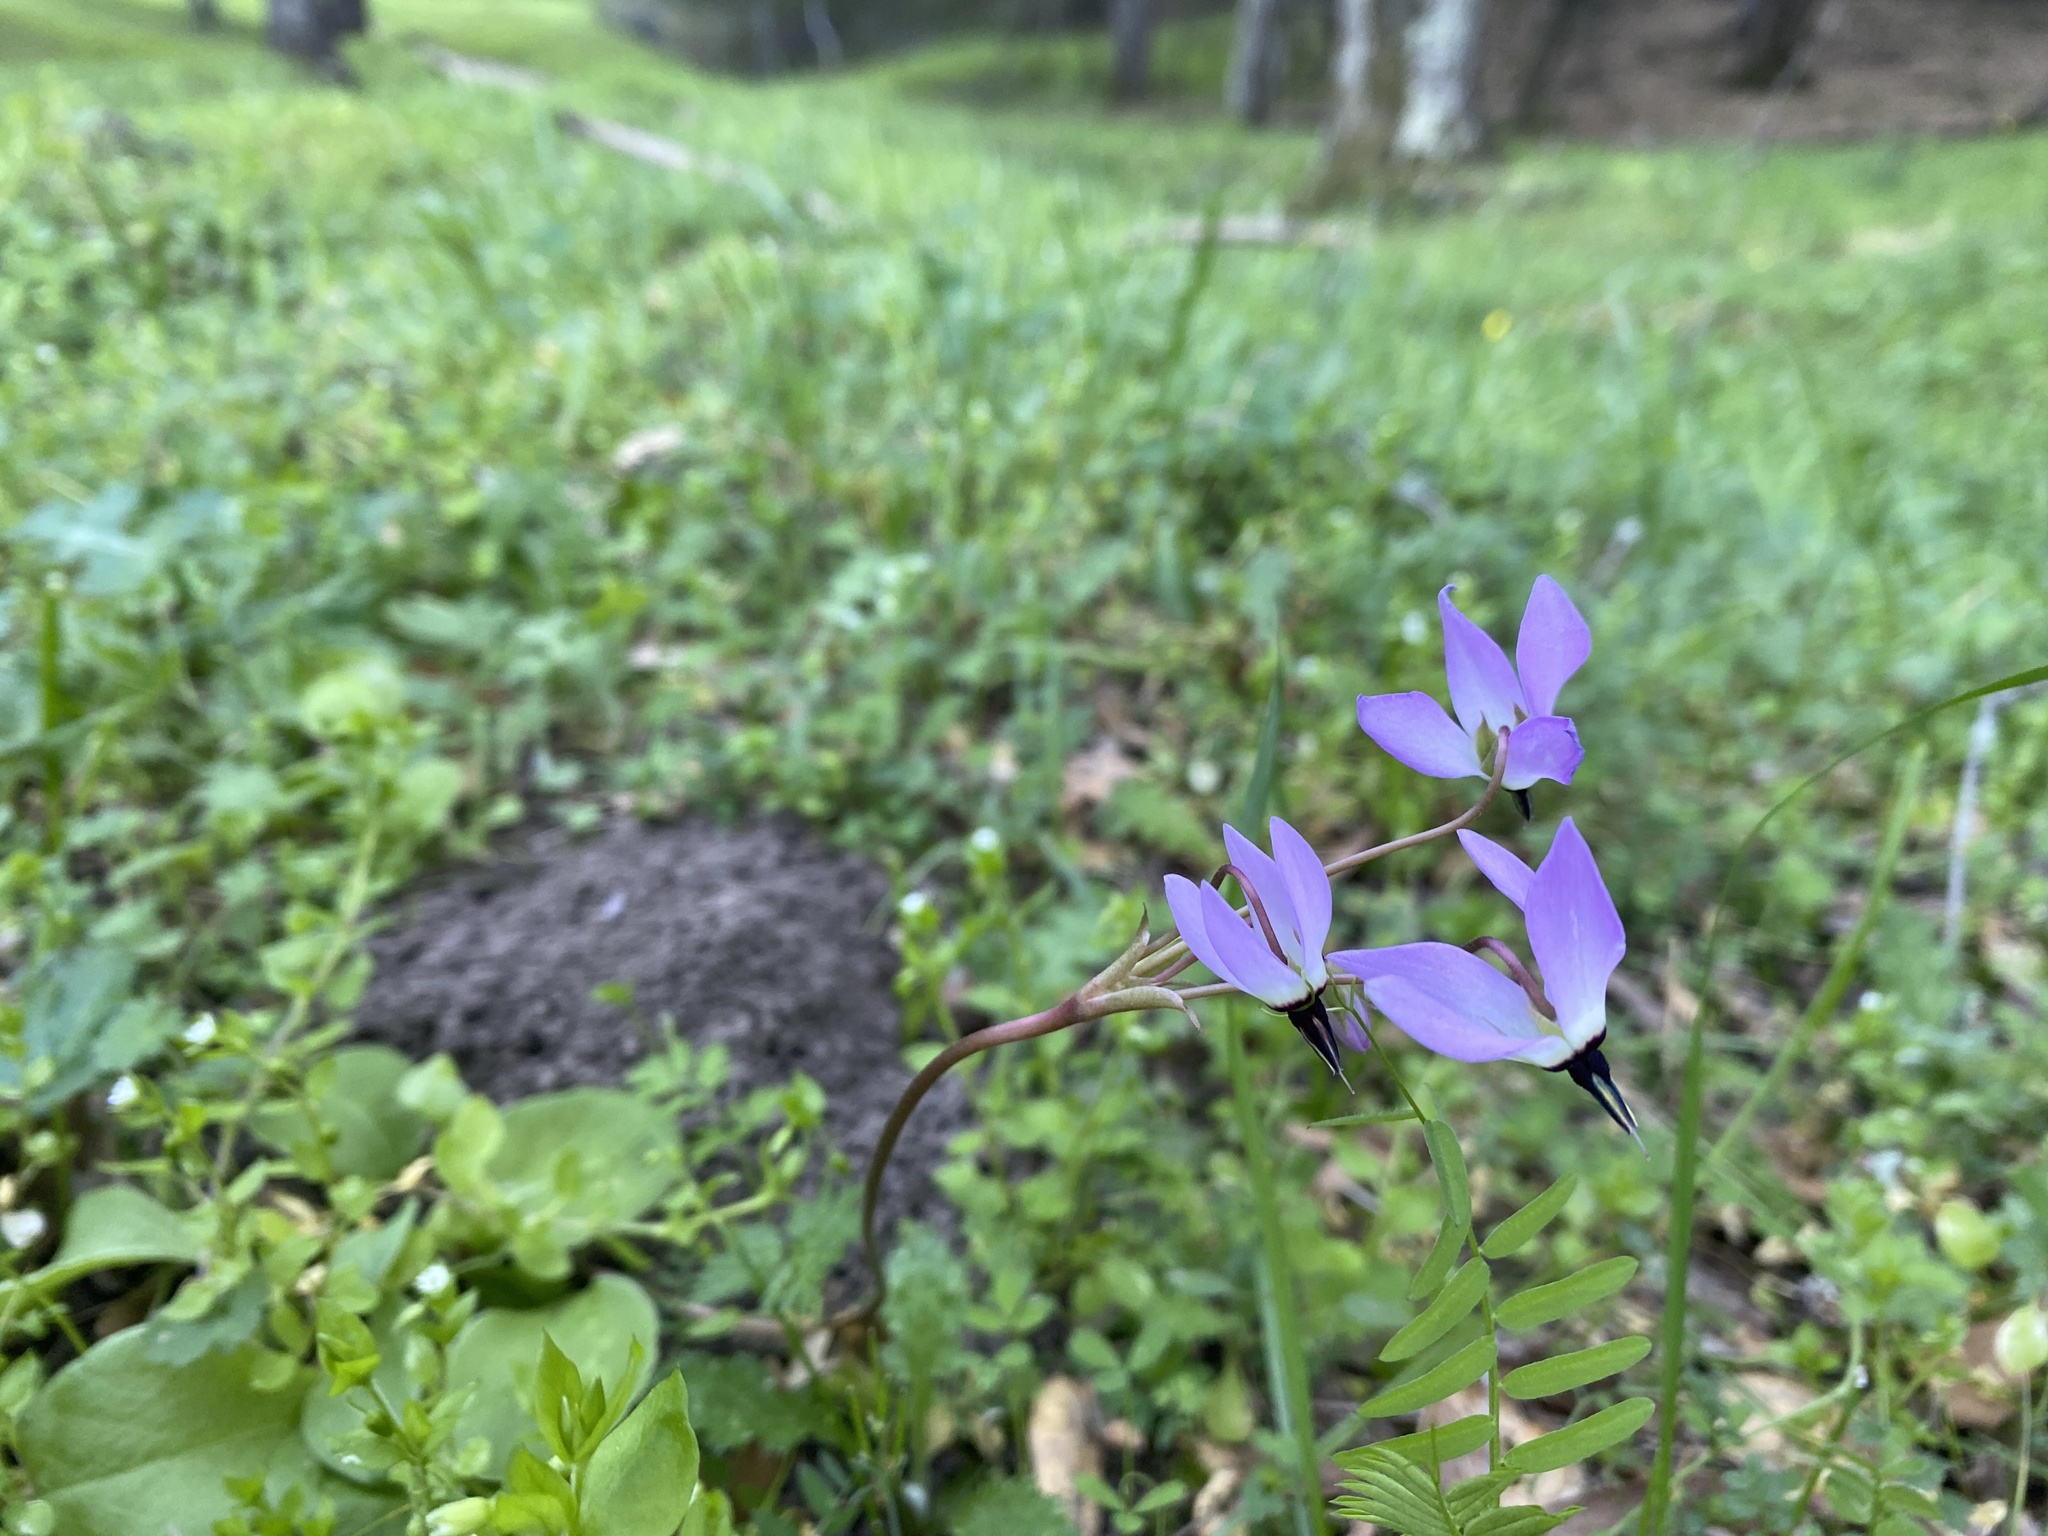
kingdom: Plantae
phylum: Tracheophyta
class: Magnoliopsida
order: Ericales
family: Primulaceae
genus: Dodecatheon
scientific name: Dodecatheon hendersonii
